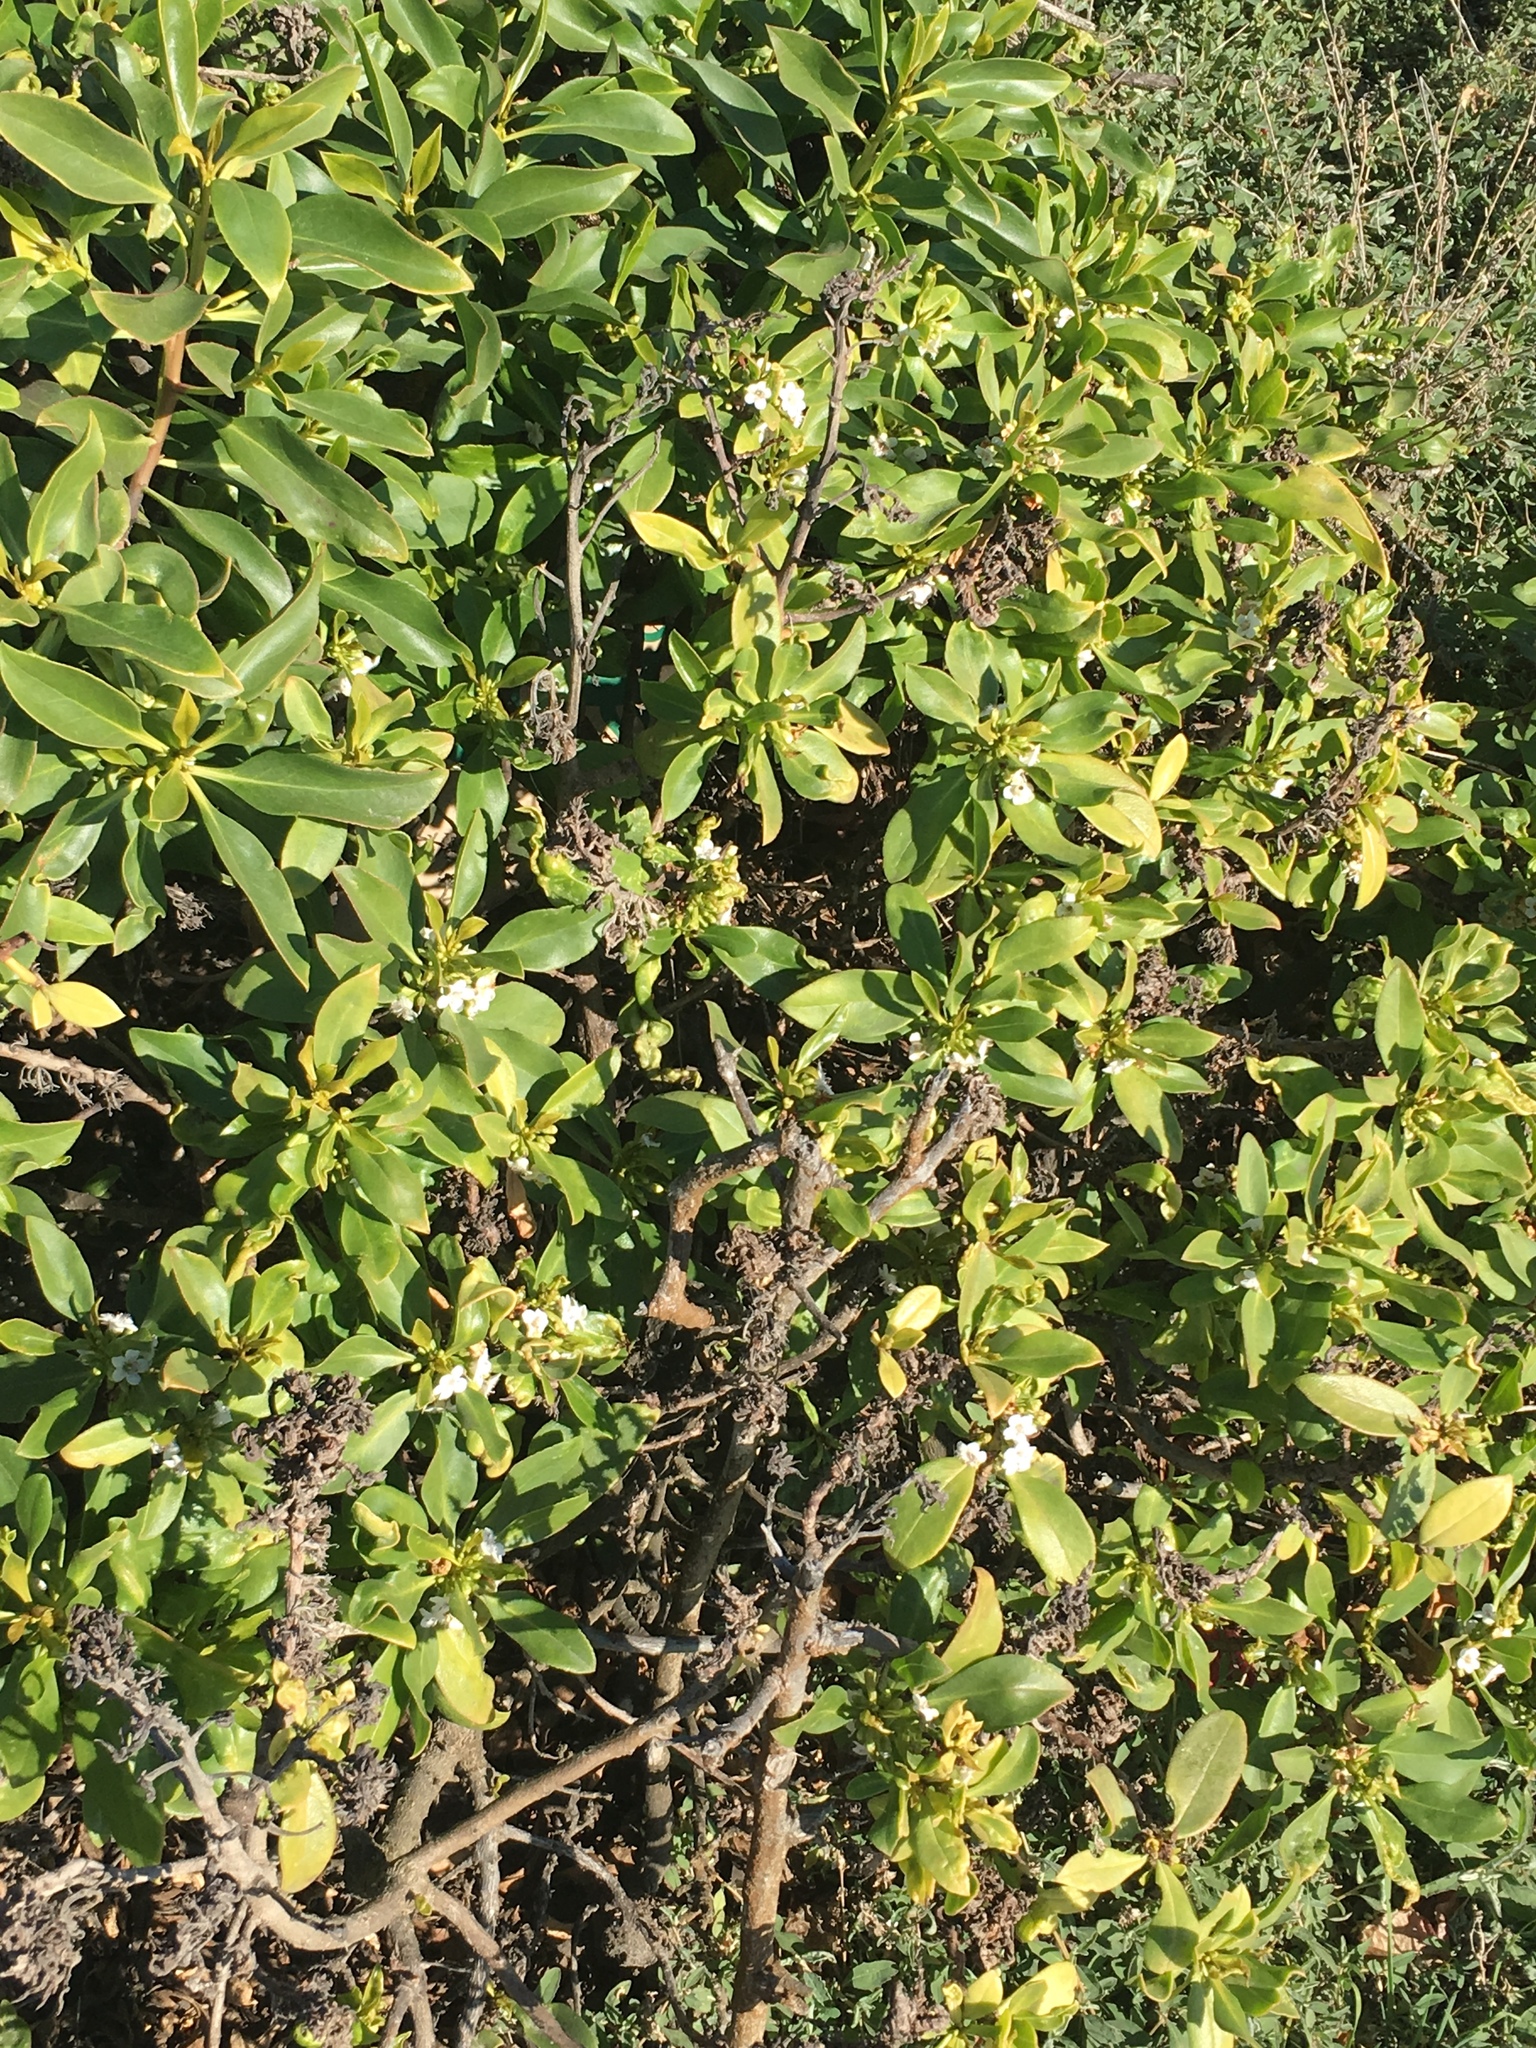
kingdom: Plantae
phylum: Tracheophyta
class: Magnoliopsida
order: Lamiales
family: Scrophulariaceae
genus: Myoporum
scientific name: Myoporum laetum
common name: Ngaio tree
